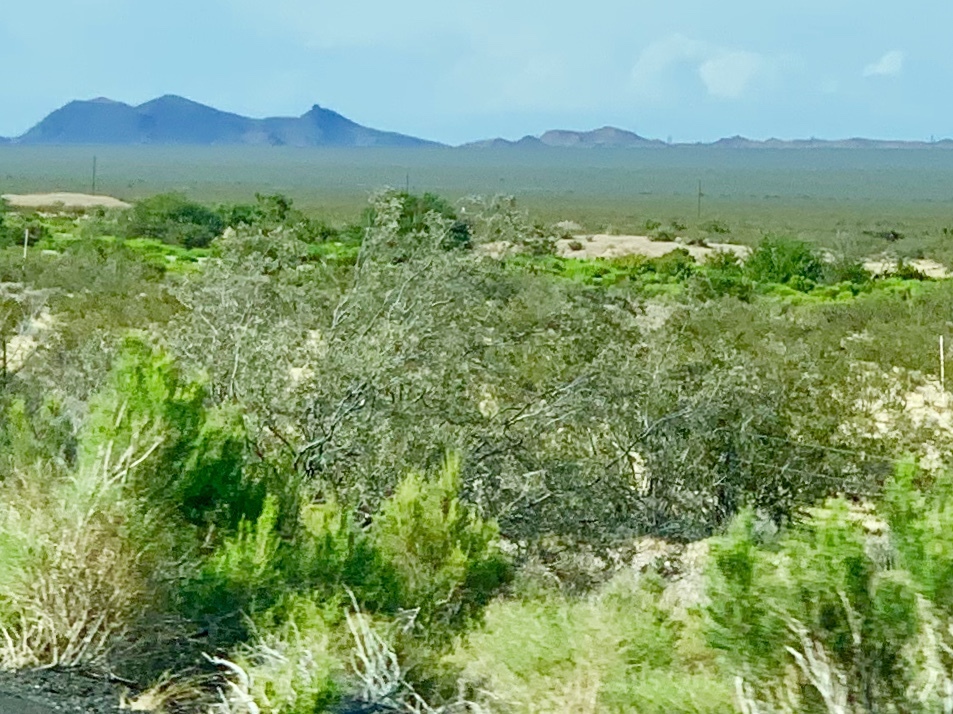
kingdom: Plantae
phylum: Tracheophyta
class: Magnoliopsida
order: Zygophyllales
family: Zygophyllaceae
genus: Larrea
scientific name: Larrea tridentata
